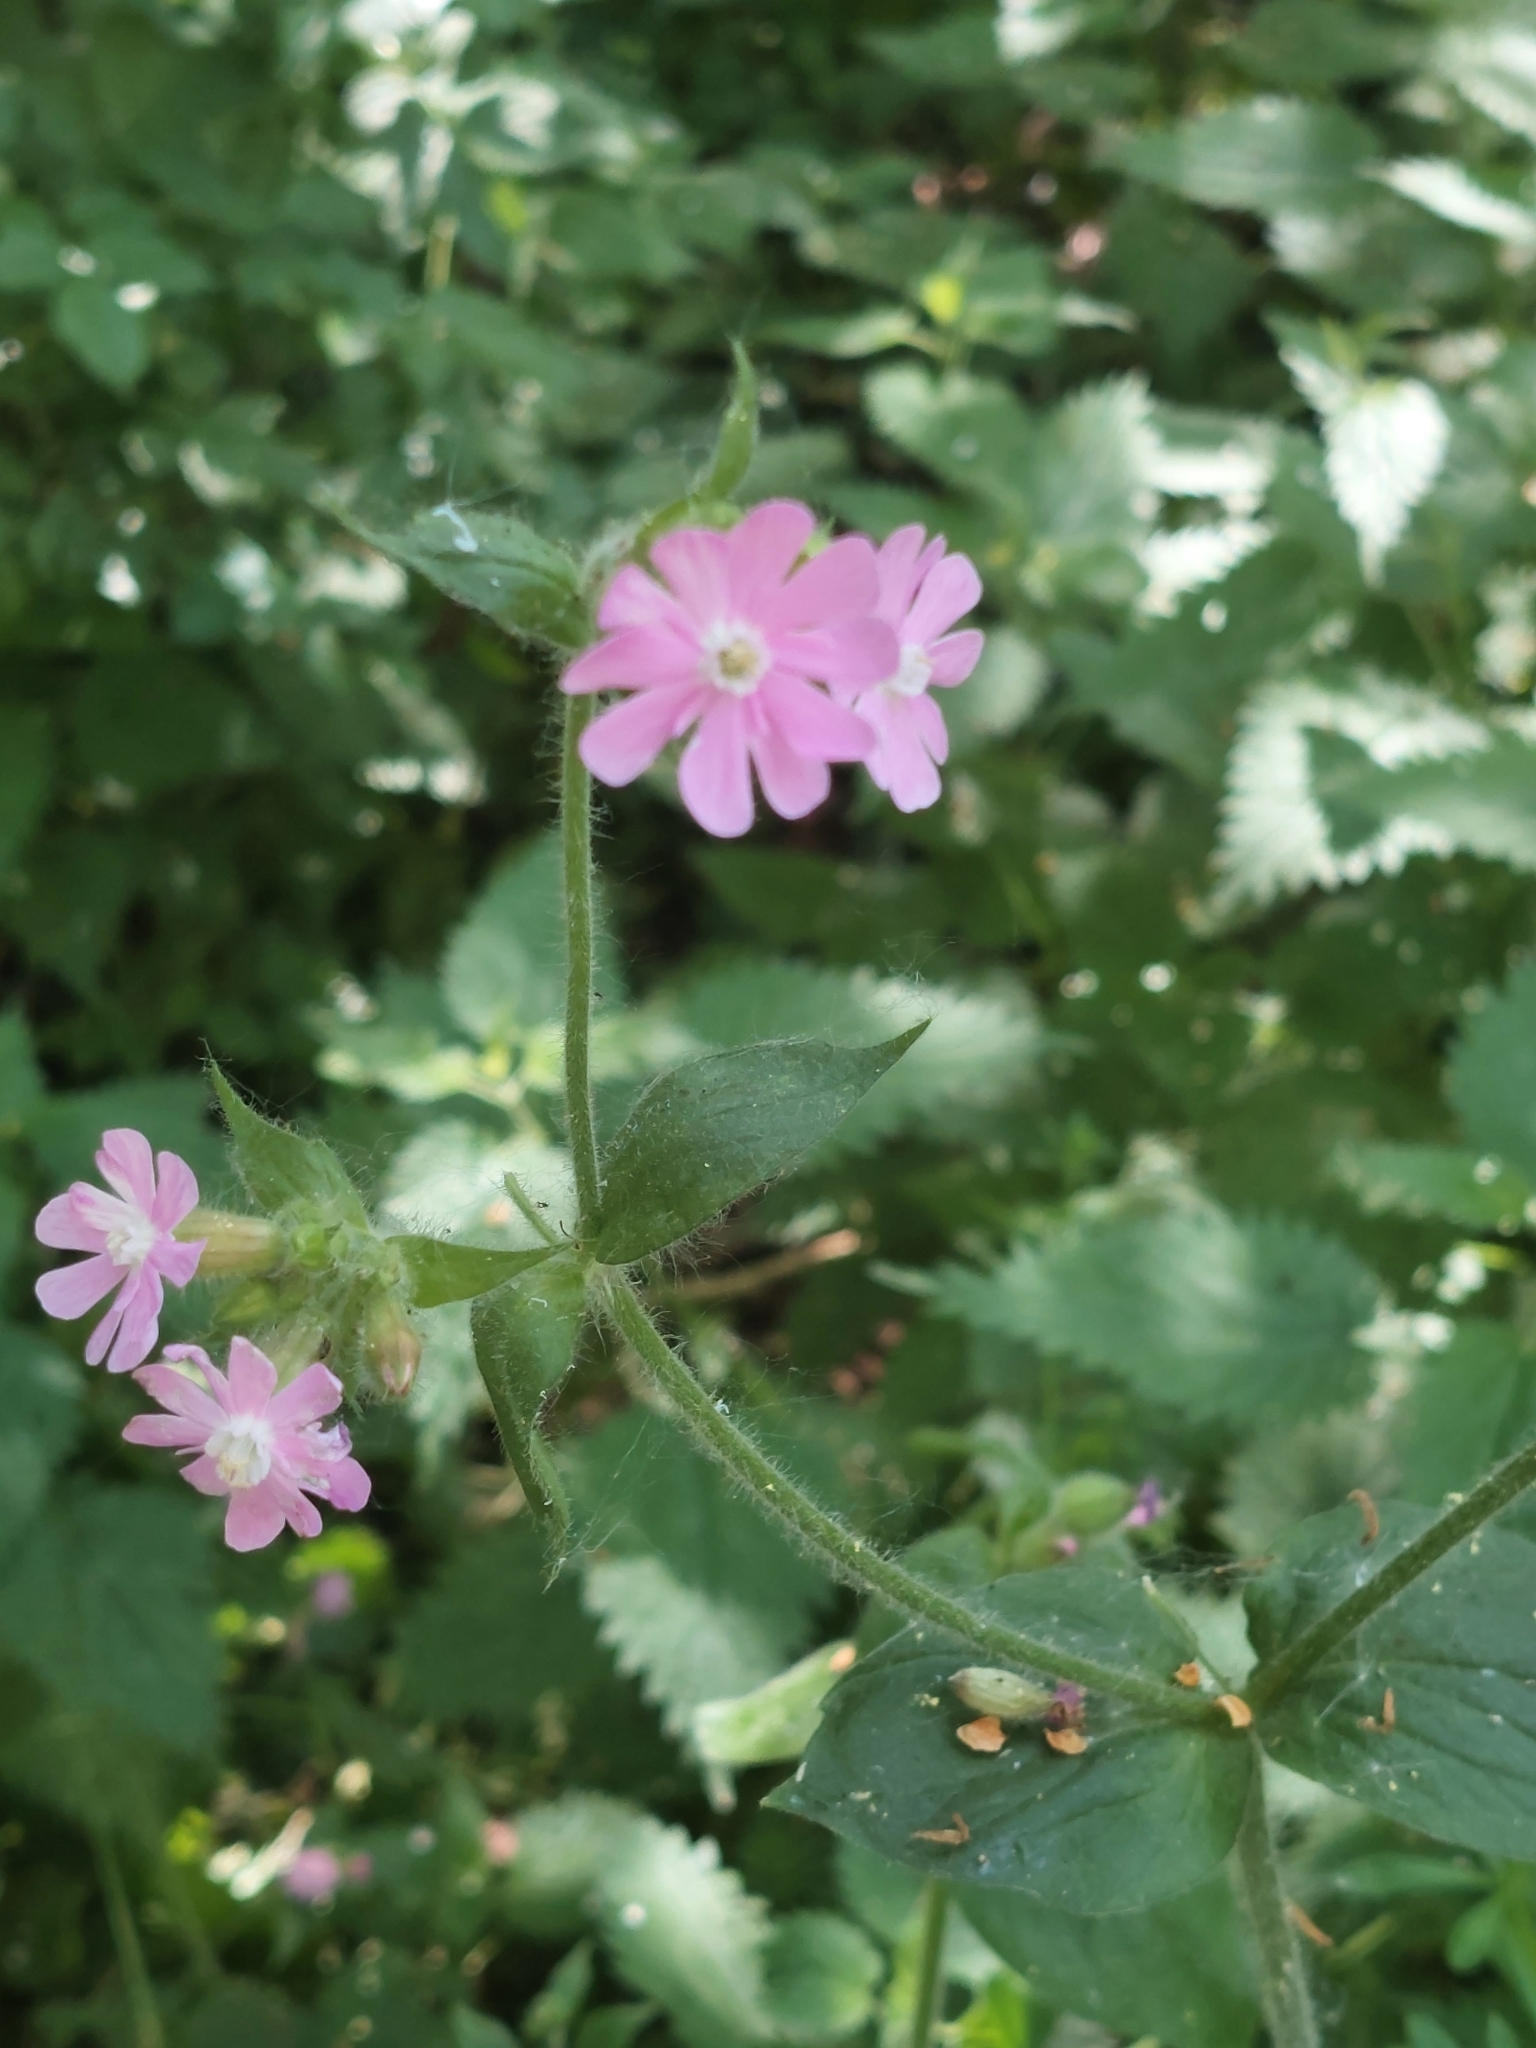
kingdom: Plantae
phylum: Tracheophyta
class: Magnoliopsida
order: Caryophyllales
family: Caryophyllaceae
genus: Silene
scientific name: Silene dioica
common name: Red campion
